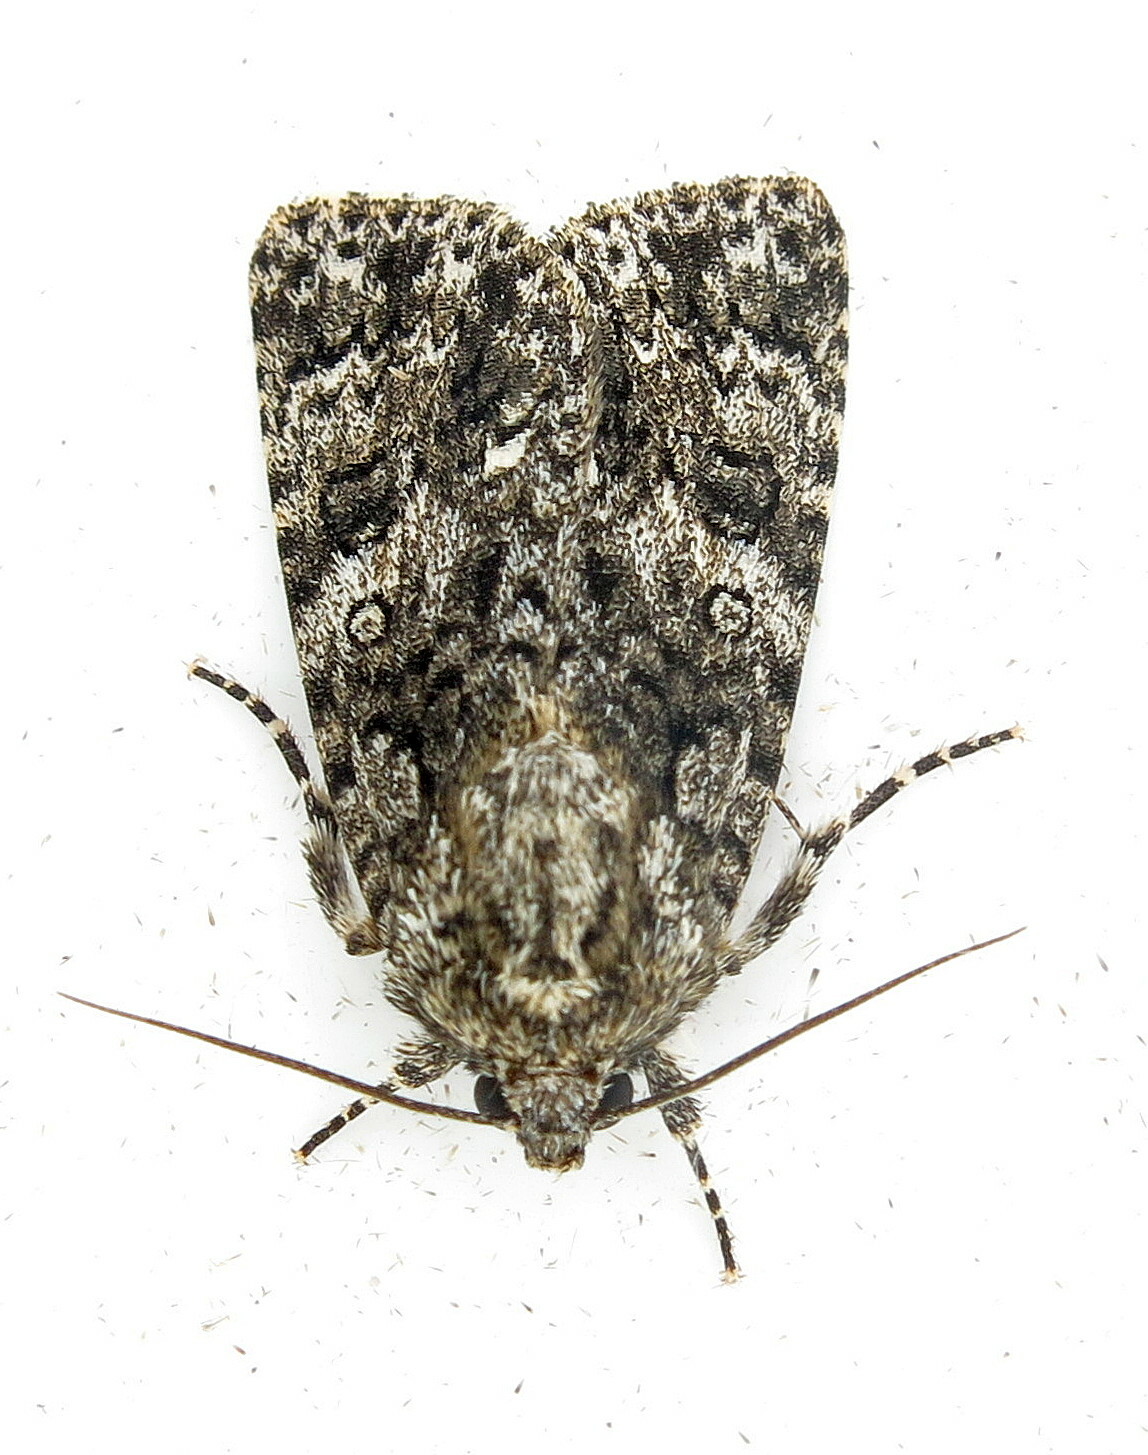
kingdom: Animalia
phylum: Arthropoda
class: Insecta
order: Lepidoptera
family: Noctuidae
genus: Acronicta
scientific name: Acronicta rumicis
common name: Knot grass
